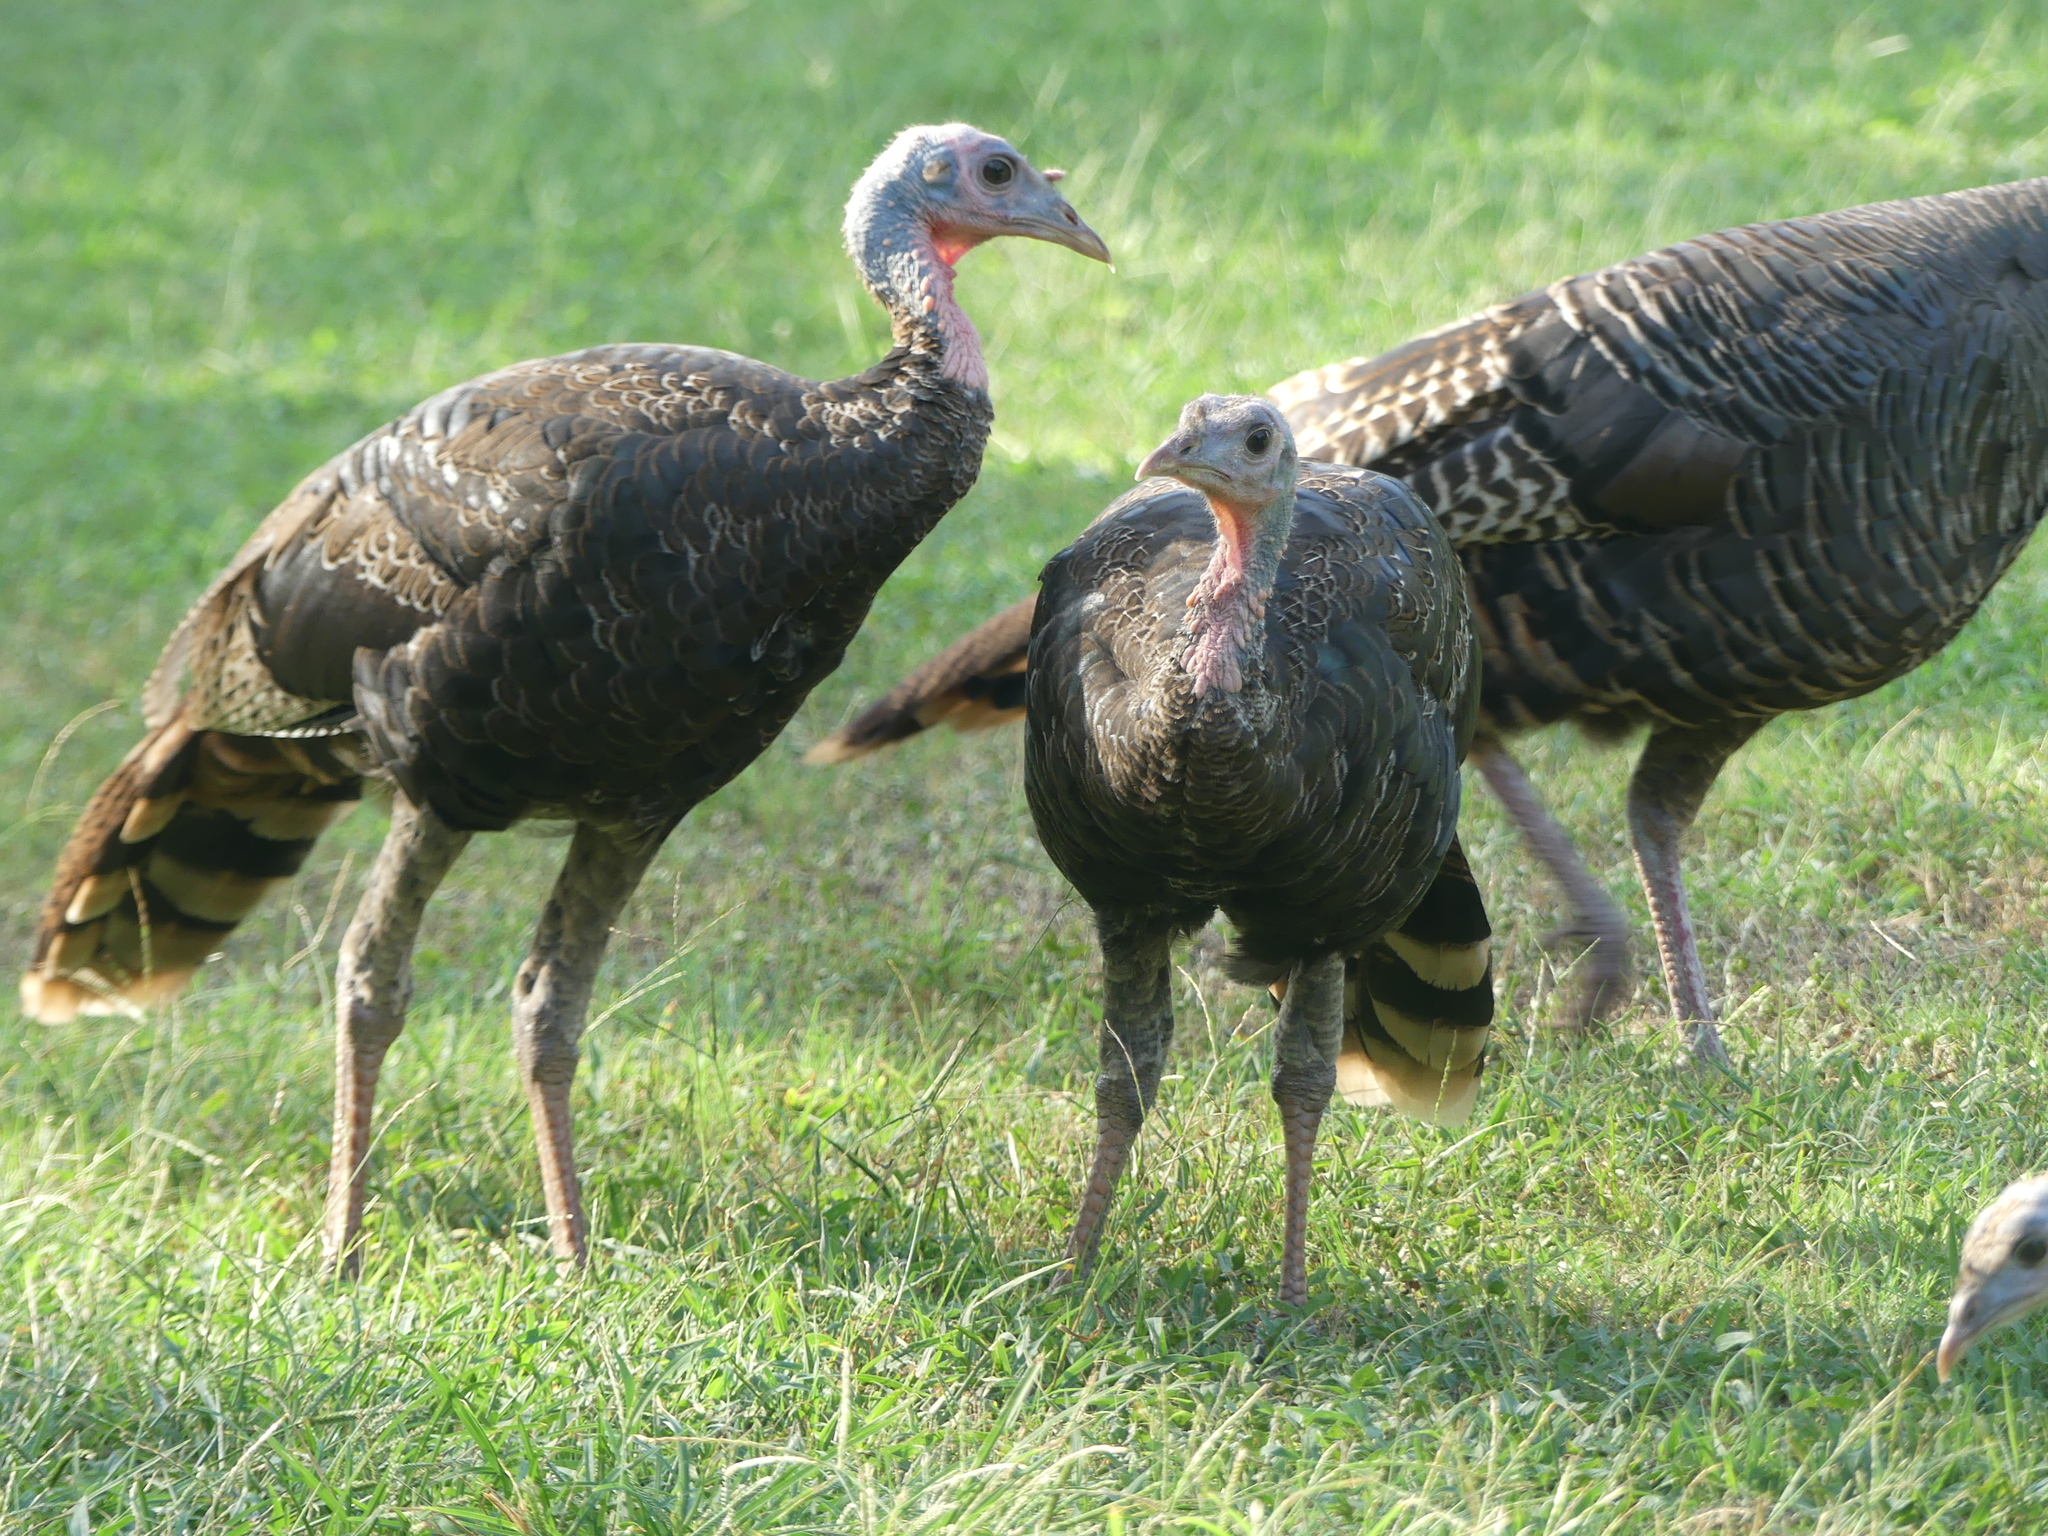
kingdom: Animalia
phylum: Chordata
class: Aves
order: Galliformes
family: Phasianidae
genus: Meleagris
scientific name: Meleagris gallopavo
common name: Wild turkey
